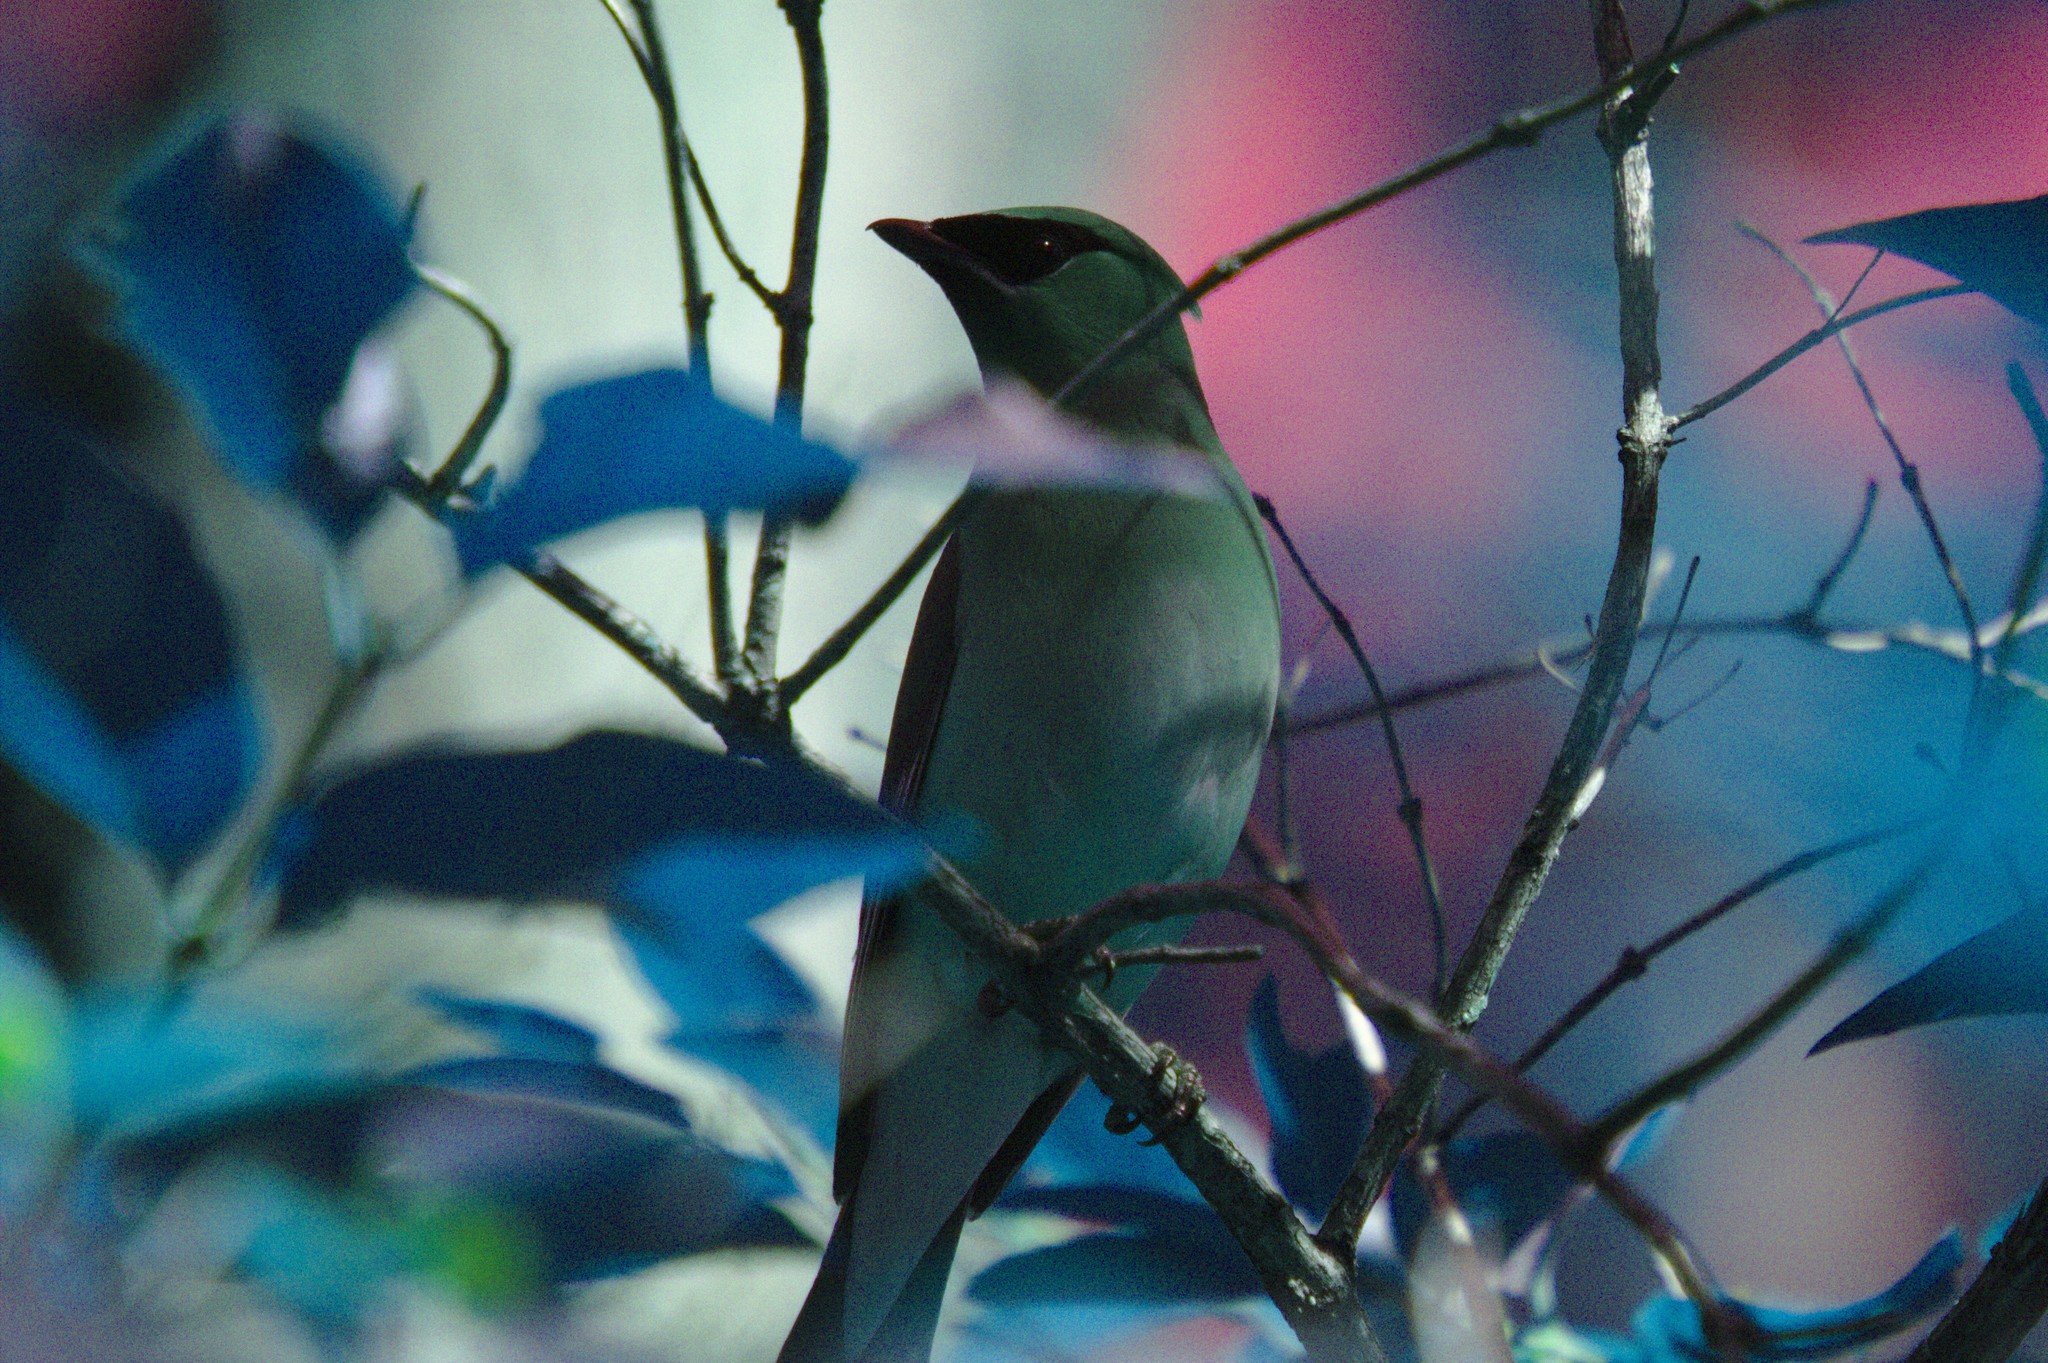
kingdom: Animalia
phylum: Chordata
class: Aves
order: Passeriformes
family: Bombycillidae
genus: Bombycilla
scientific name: Bombycilla cedrorum
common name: Cedar waxwing
